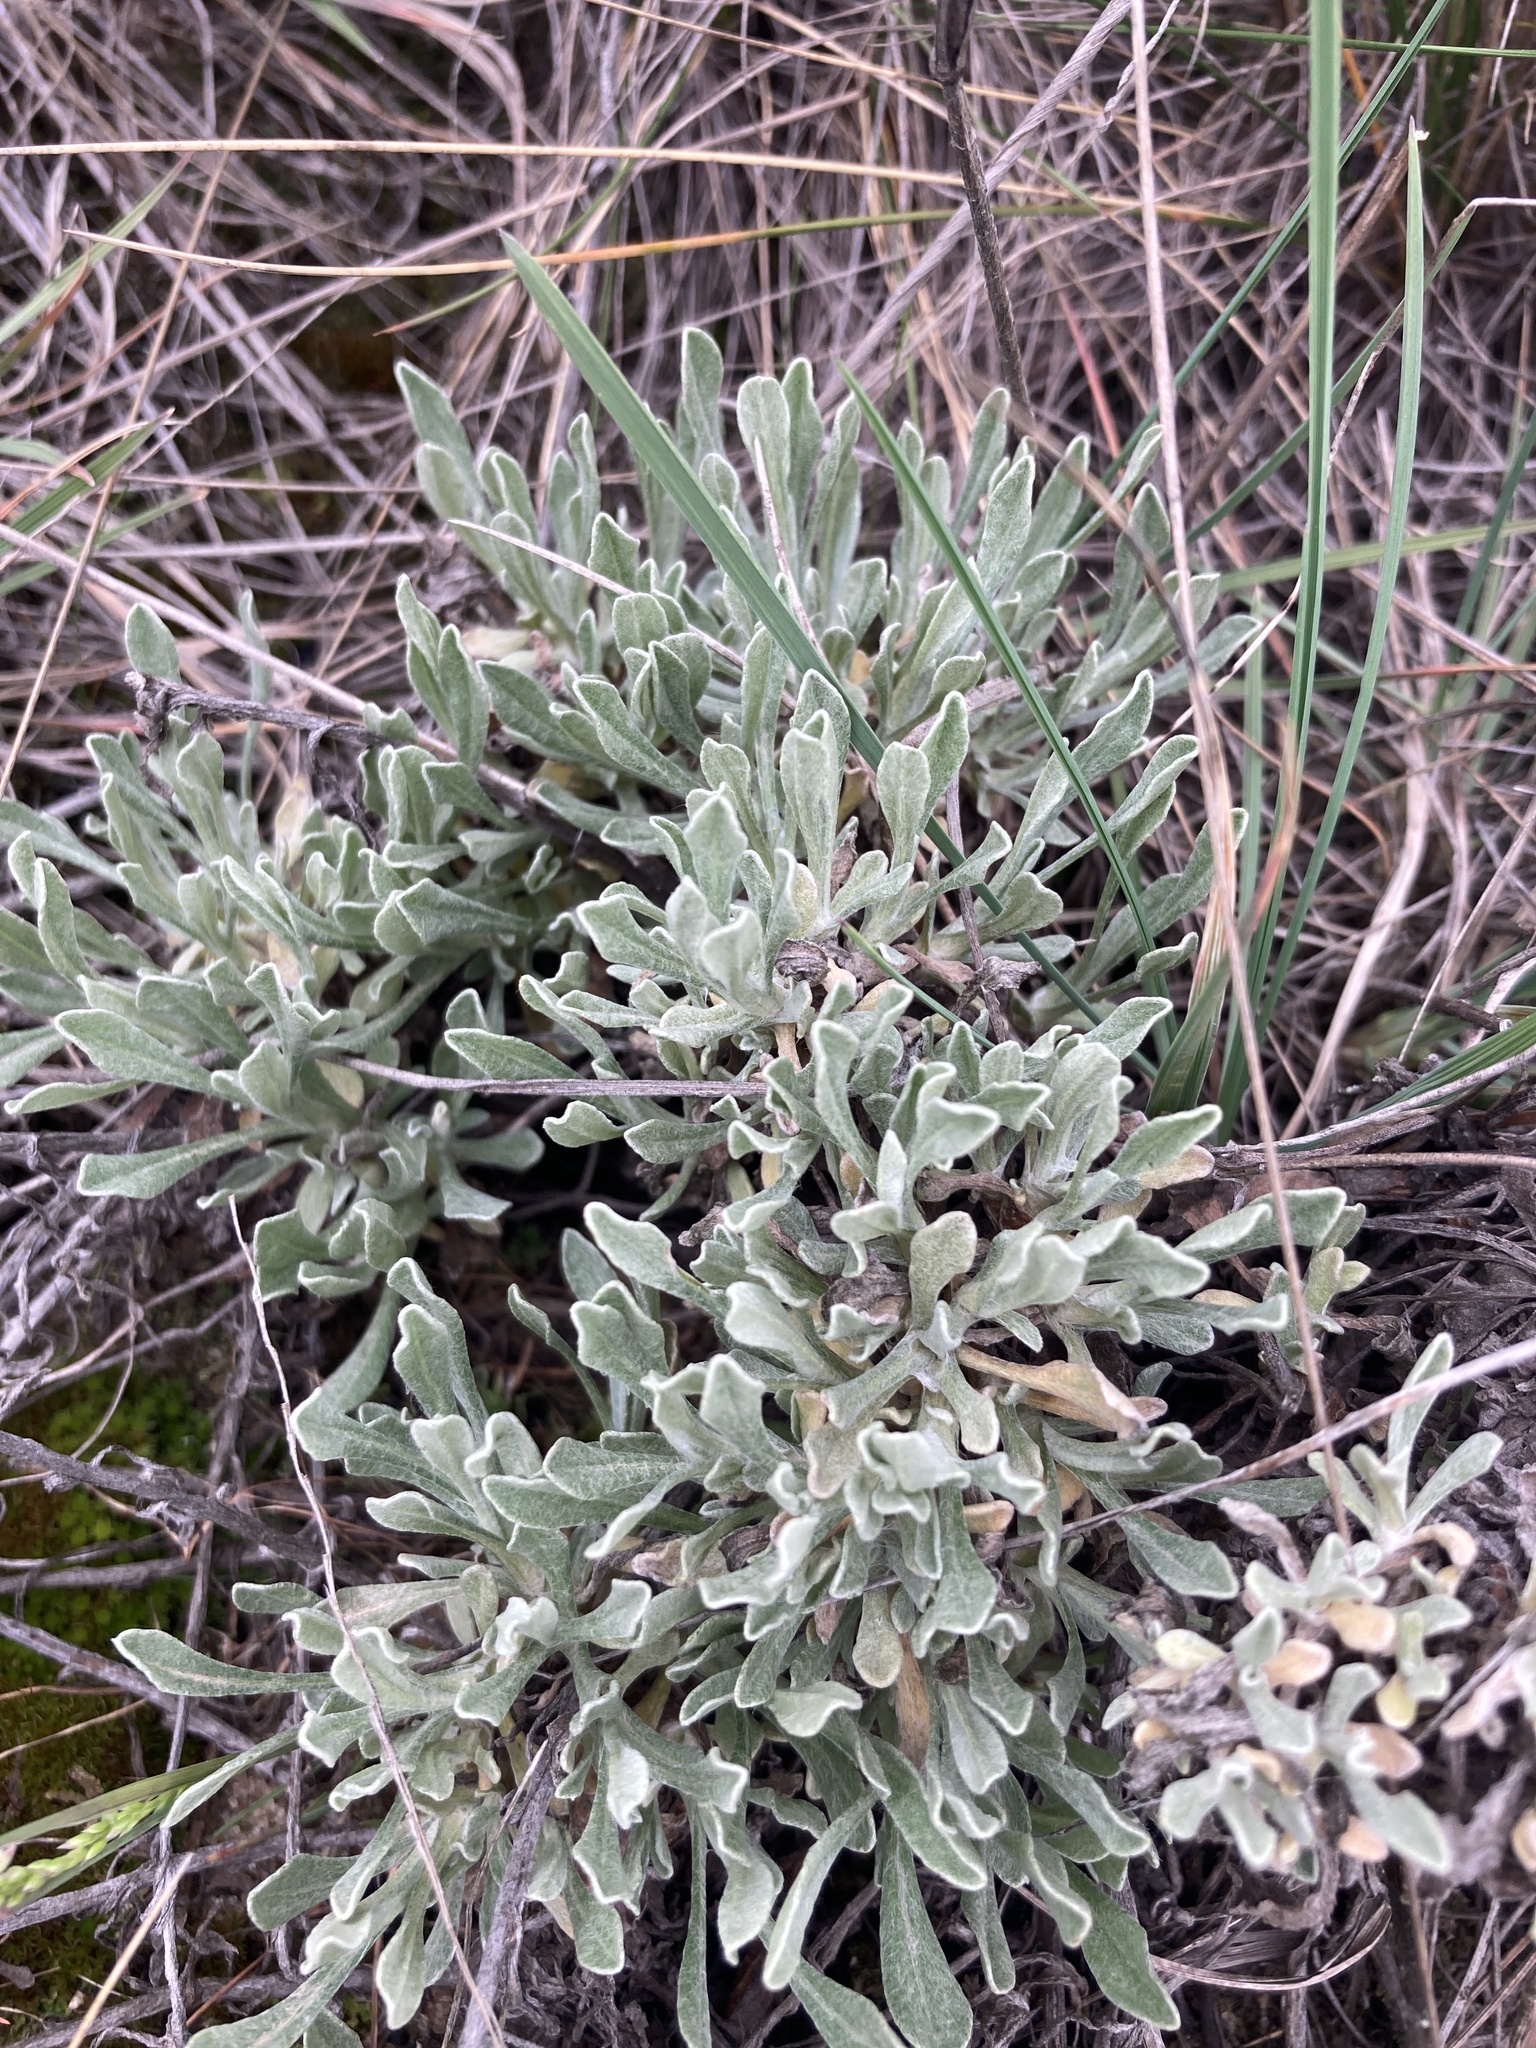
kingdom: Plantae
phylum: Tracheophyta
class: Magnoliopsida
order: Asterales
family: Asteraceae
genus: Helichrysum
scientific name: Helichrysum arenarium
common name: Strawflower
